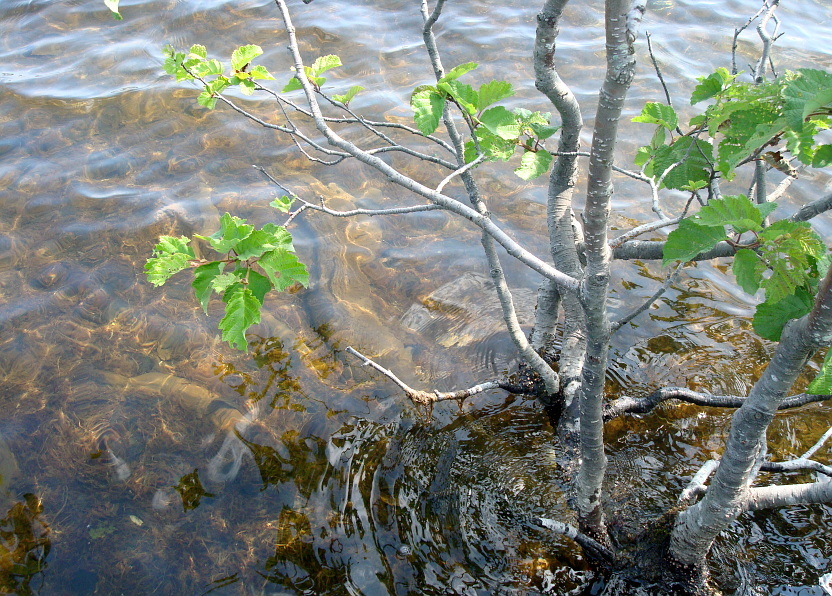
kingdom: Plantae
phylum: Tracheophyta
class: Magnoliopsida
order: Fagales
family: Betulaceae
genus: Alnus
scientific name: Alnus alnobetula
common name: Green alder
